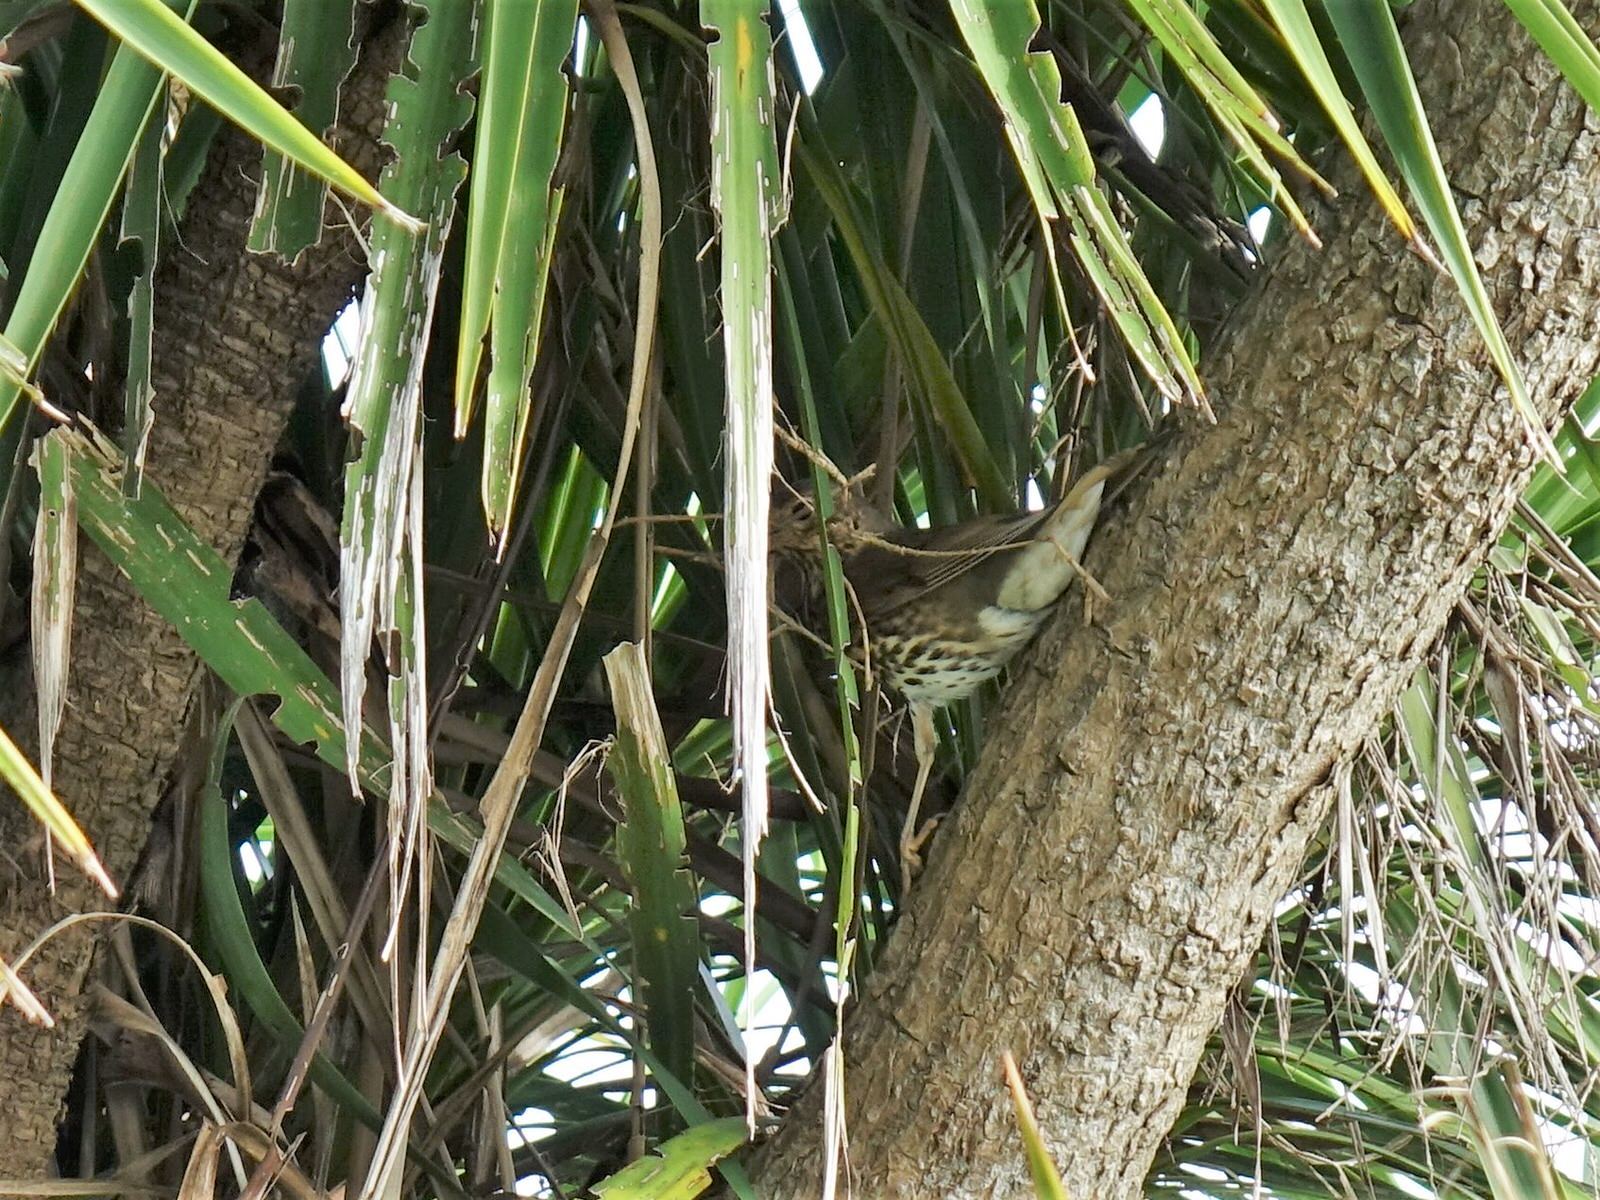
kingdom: Animalia
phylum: Chordata
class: Aves
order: Passeriformes
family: Turdidae
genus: Turdus
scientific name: Turdus philomelos
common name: Song thrush
